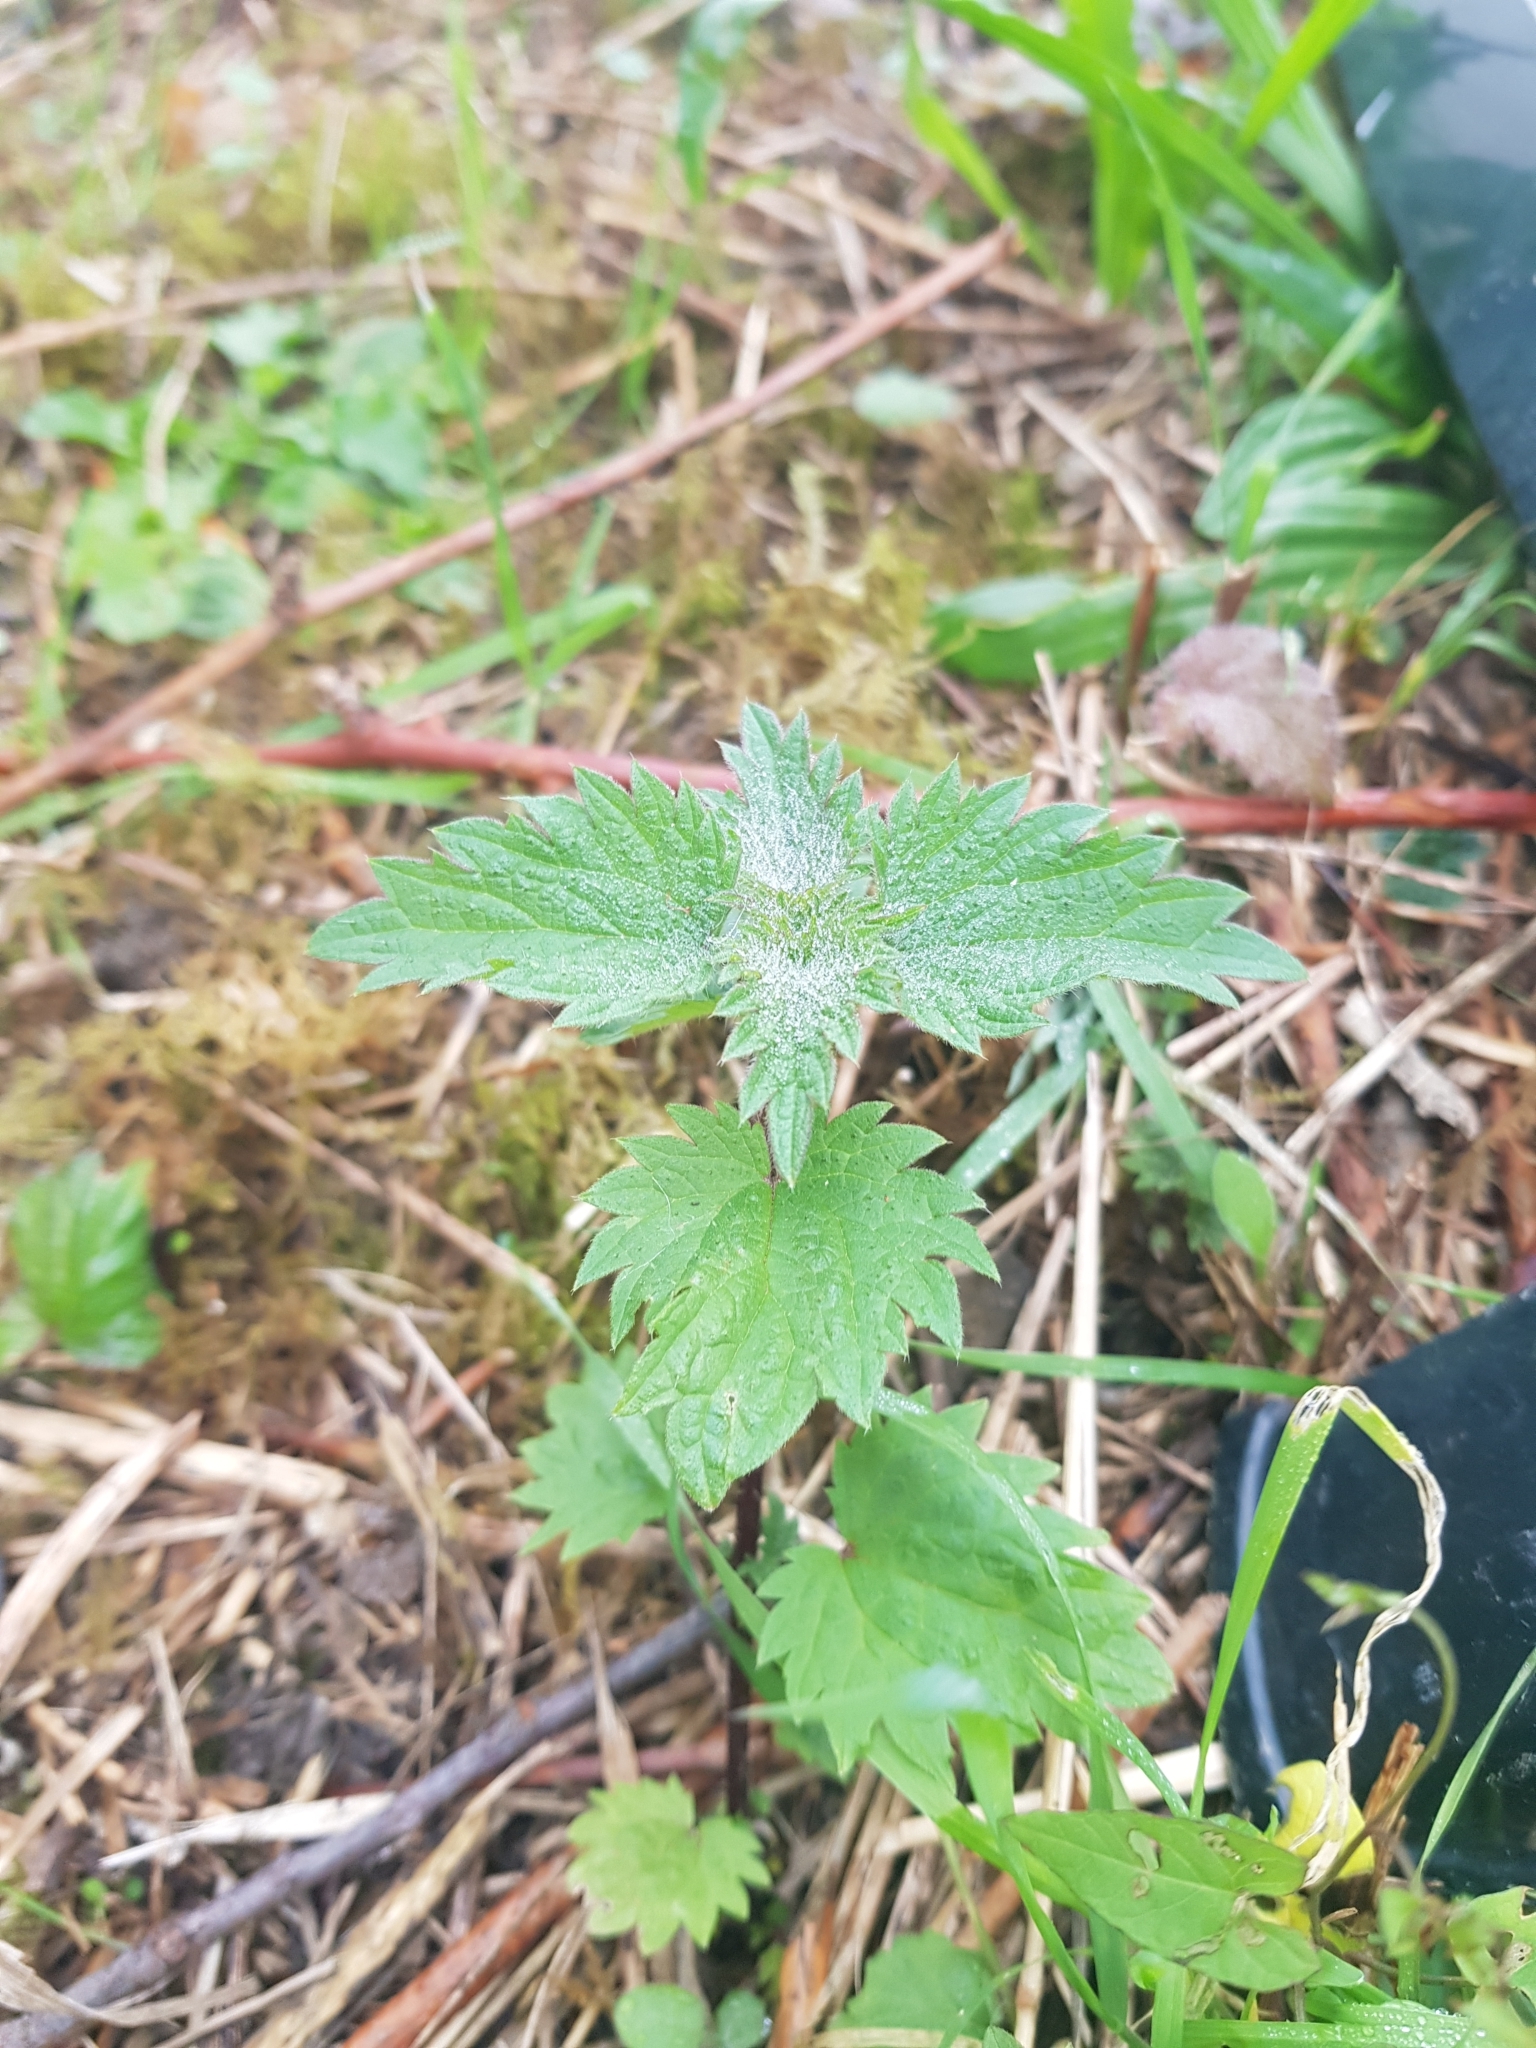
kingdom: Plantae
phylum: Tracheophyta
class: Magnoliopsida
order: Rosales
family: Urticaceae
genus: Urtica
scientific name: Urtica dioica
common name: Common nettle
